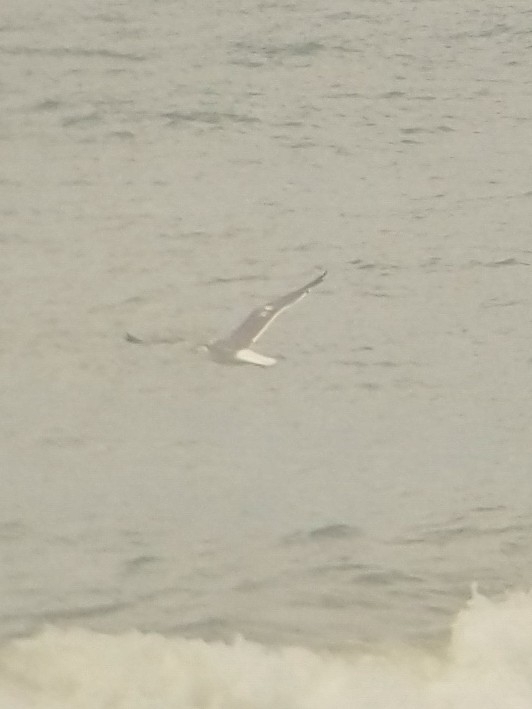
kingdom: Animalia
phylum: Chordata
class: Aves
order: Charadriiformes
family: Laridae
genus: Larus
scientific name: Larus fuscus
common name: Lesser black-backed gull
